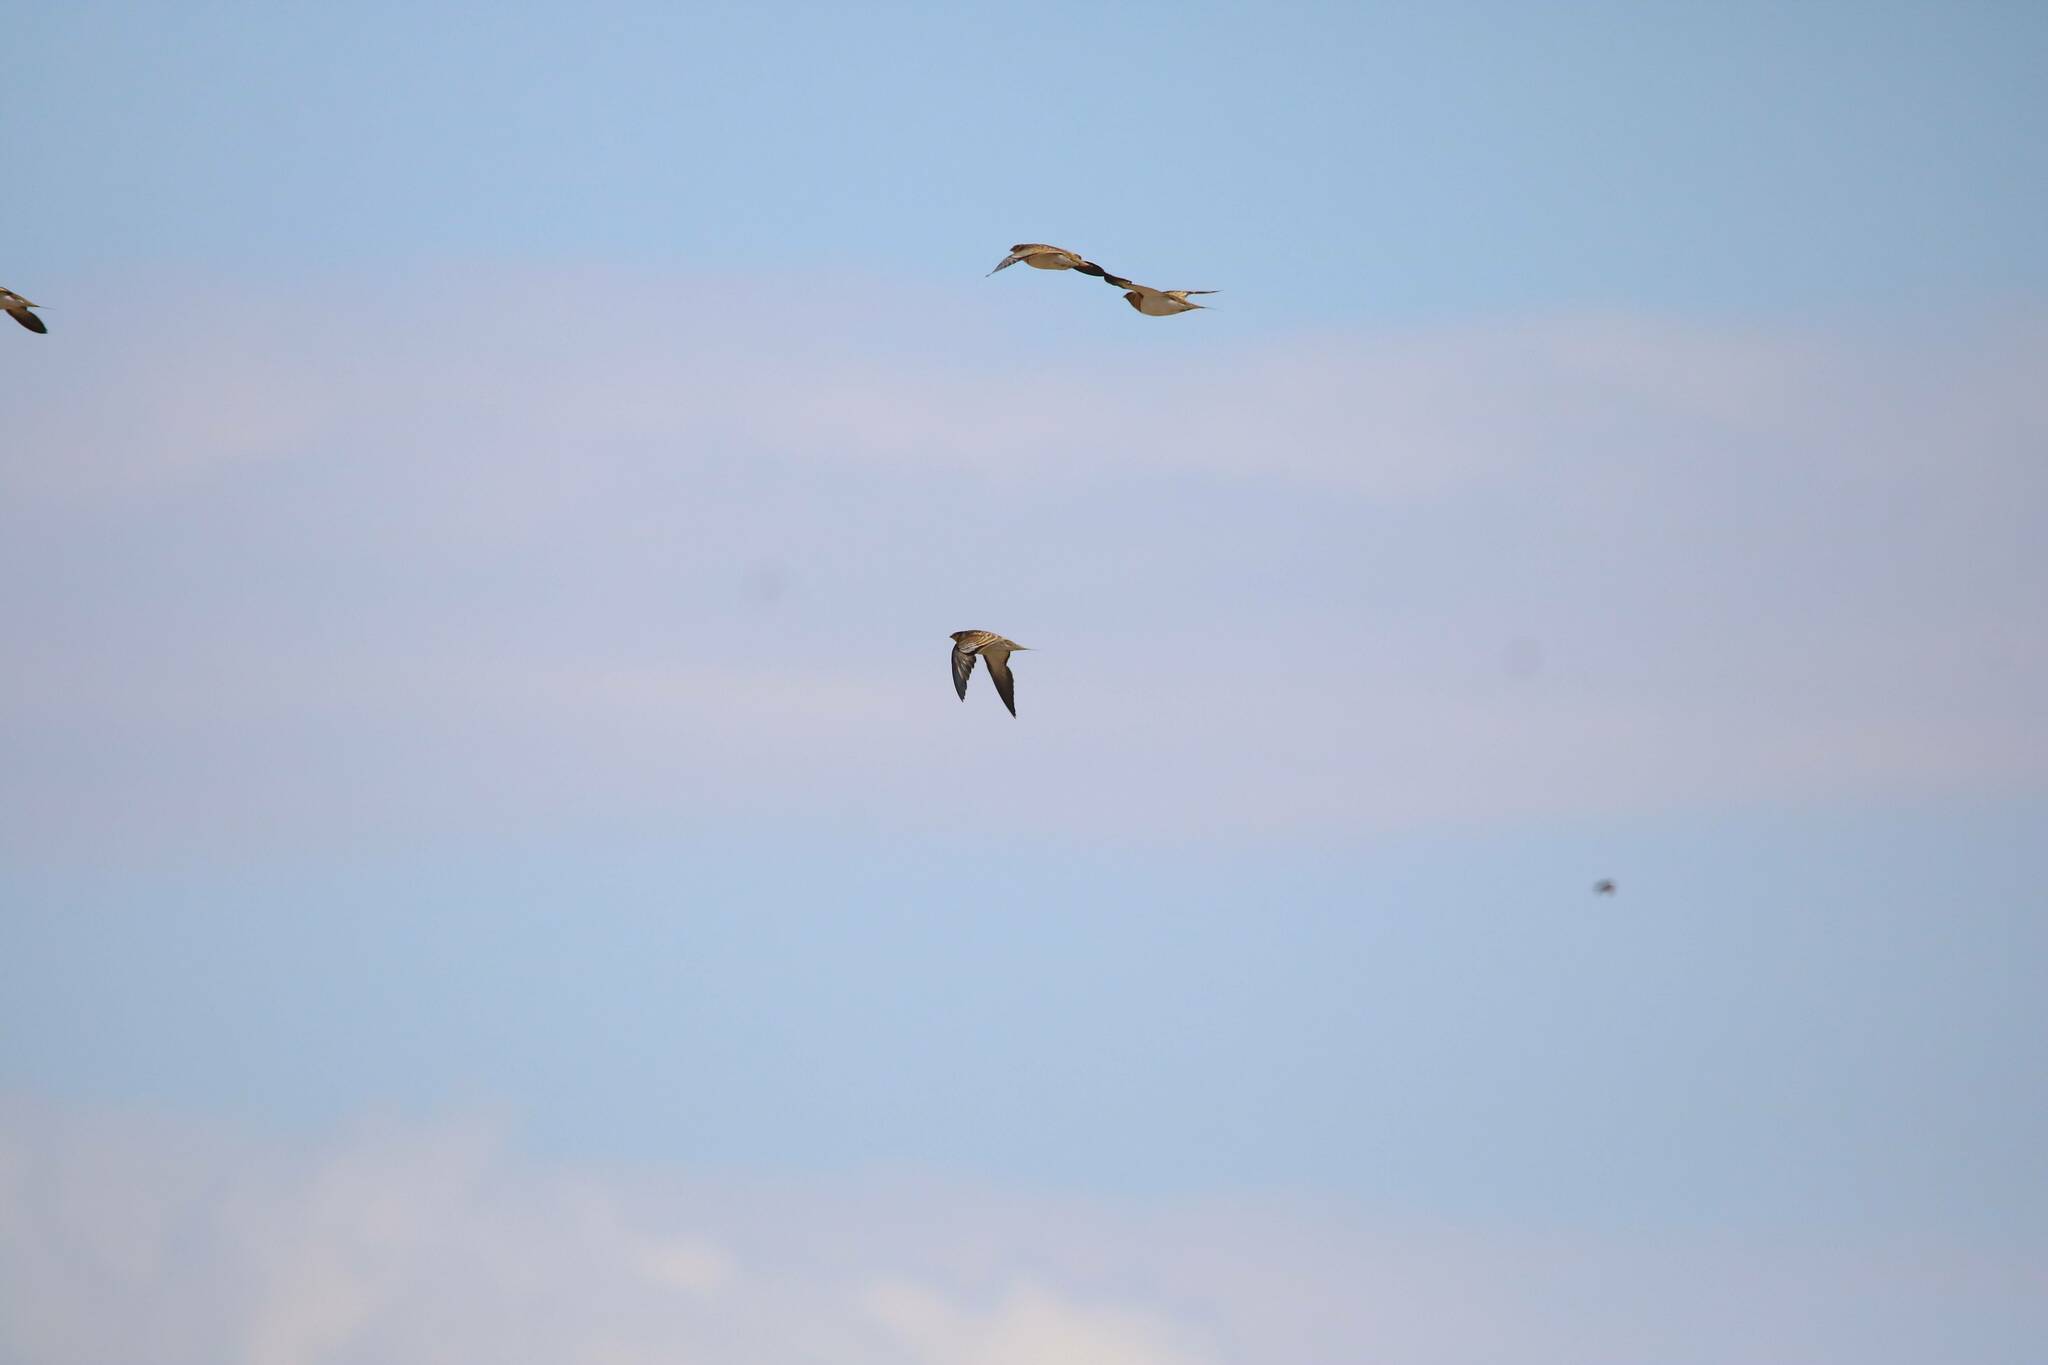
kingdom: Animalia
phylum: Chordata
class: Aves
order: Pteroclidiformes
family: Pteroclididae
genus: Pterocles
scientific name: Pterocles alchata
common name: Pin-tailed sandgrouse
